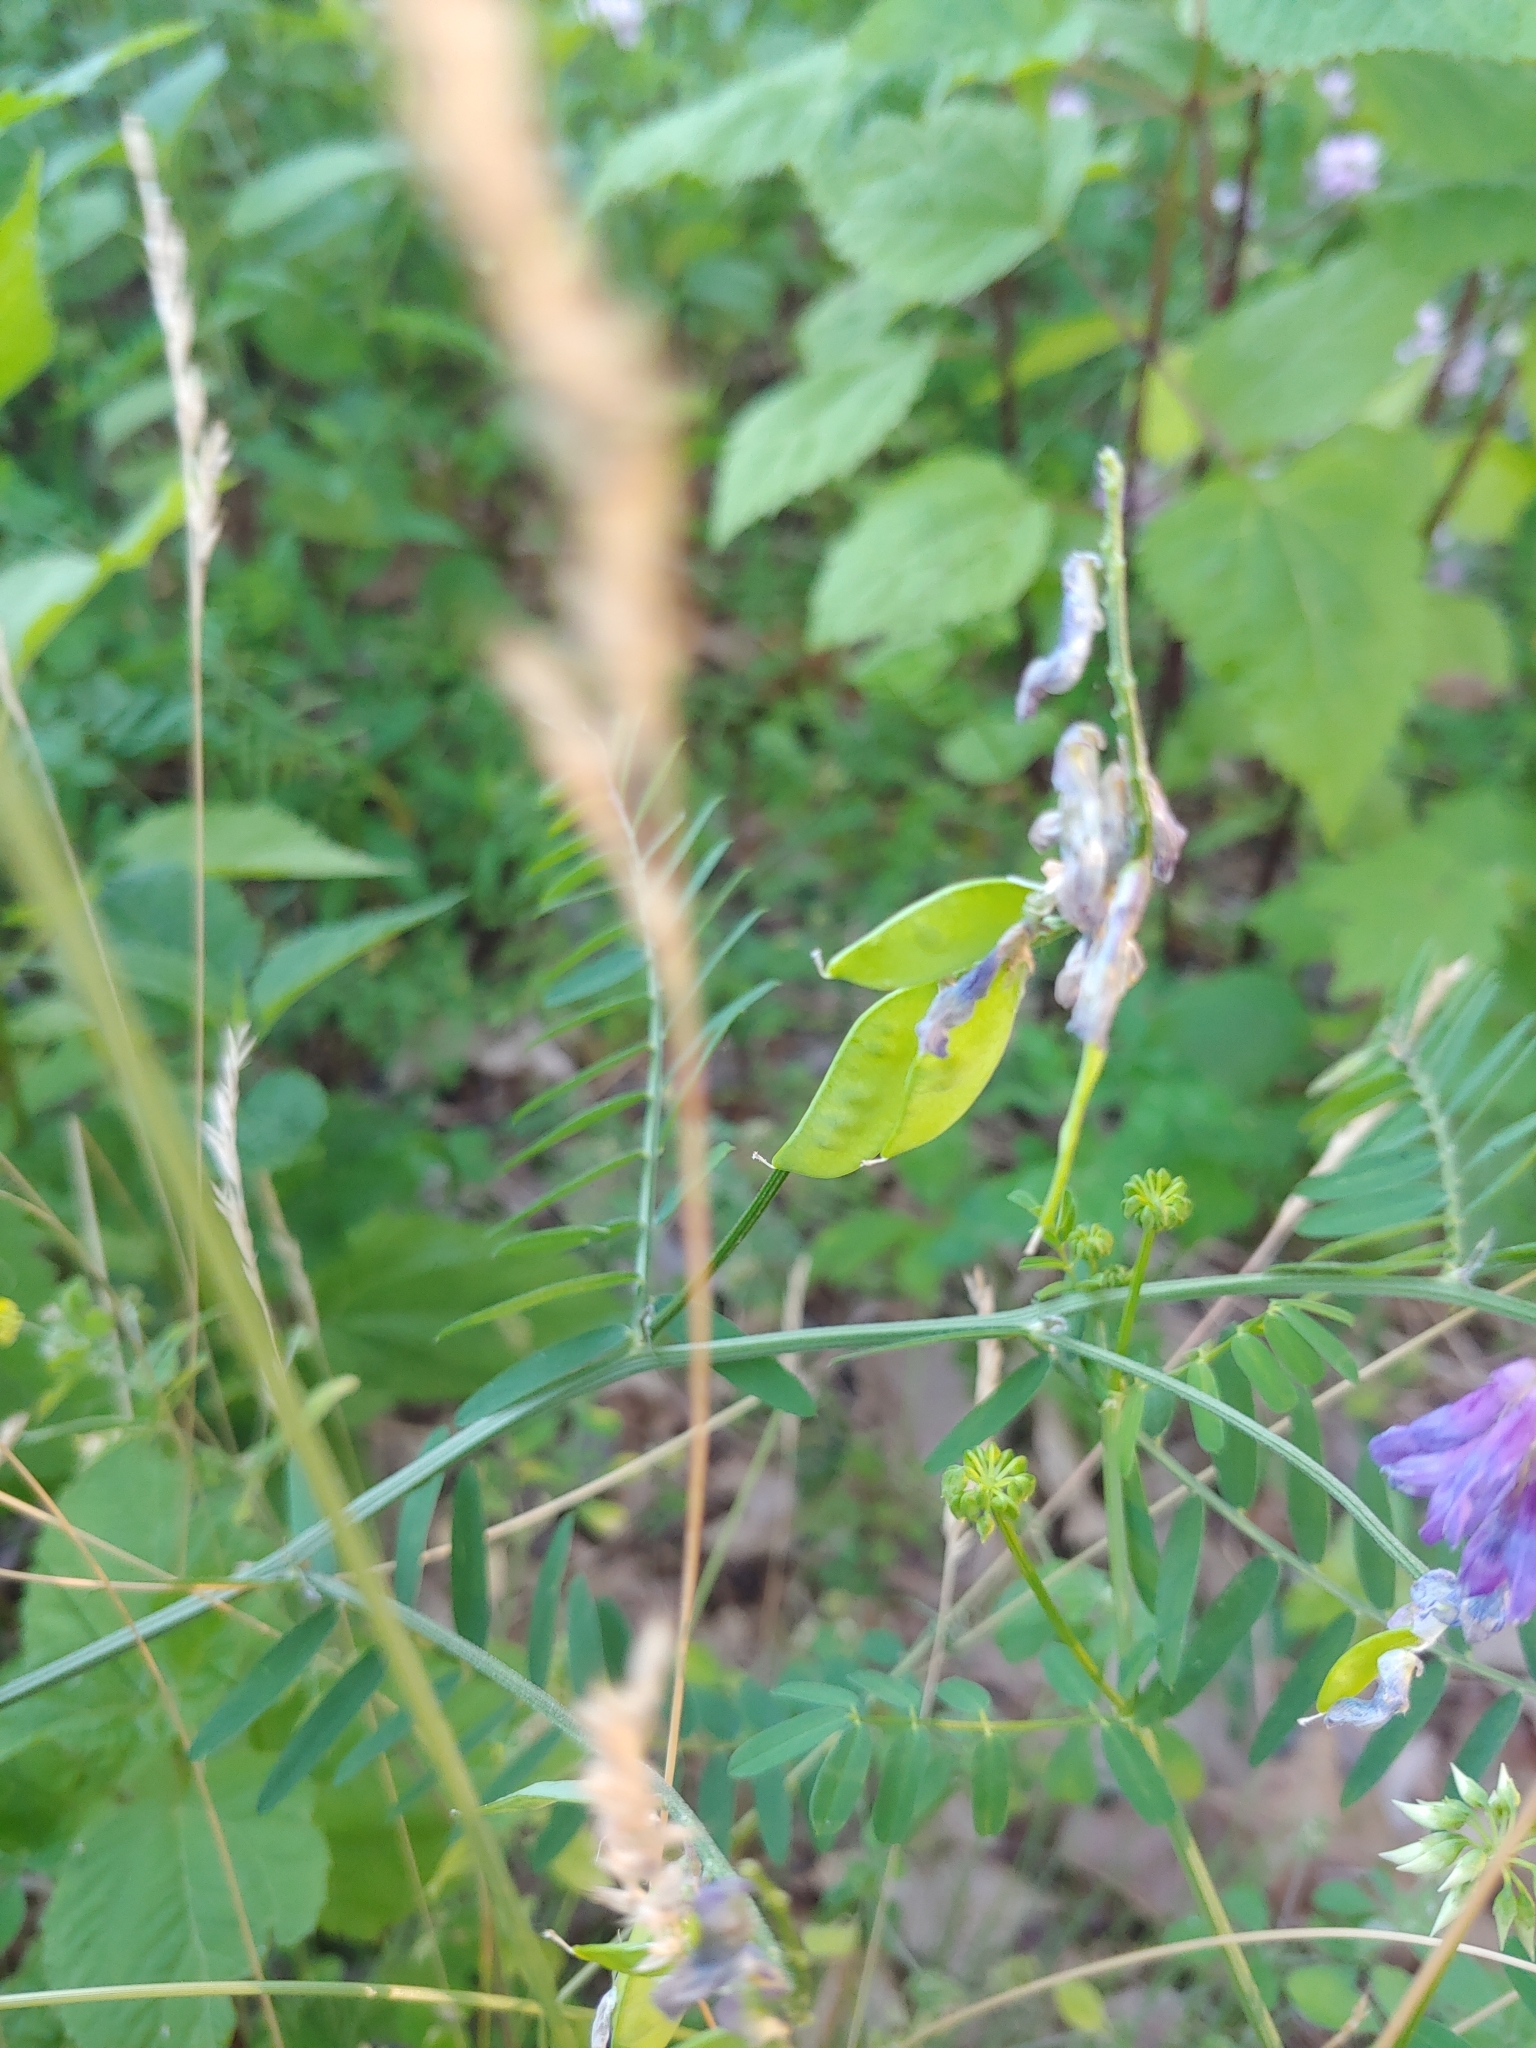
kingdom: Plantae
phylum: Tracheophyta
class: Magnoliopsida
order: Fabales
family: Fabaceae
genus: Vicia
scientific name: Vicia cracca
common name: Bird vetch
